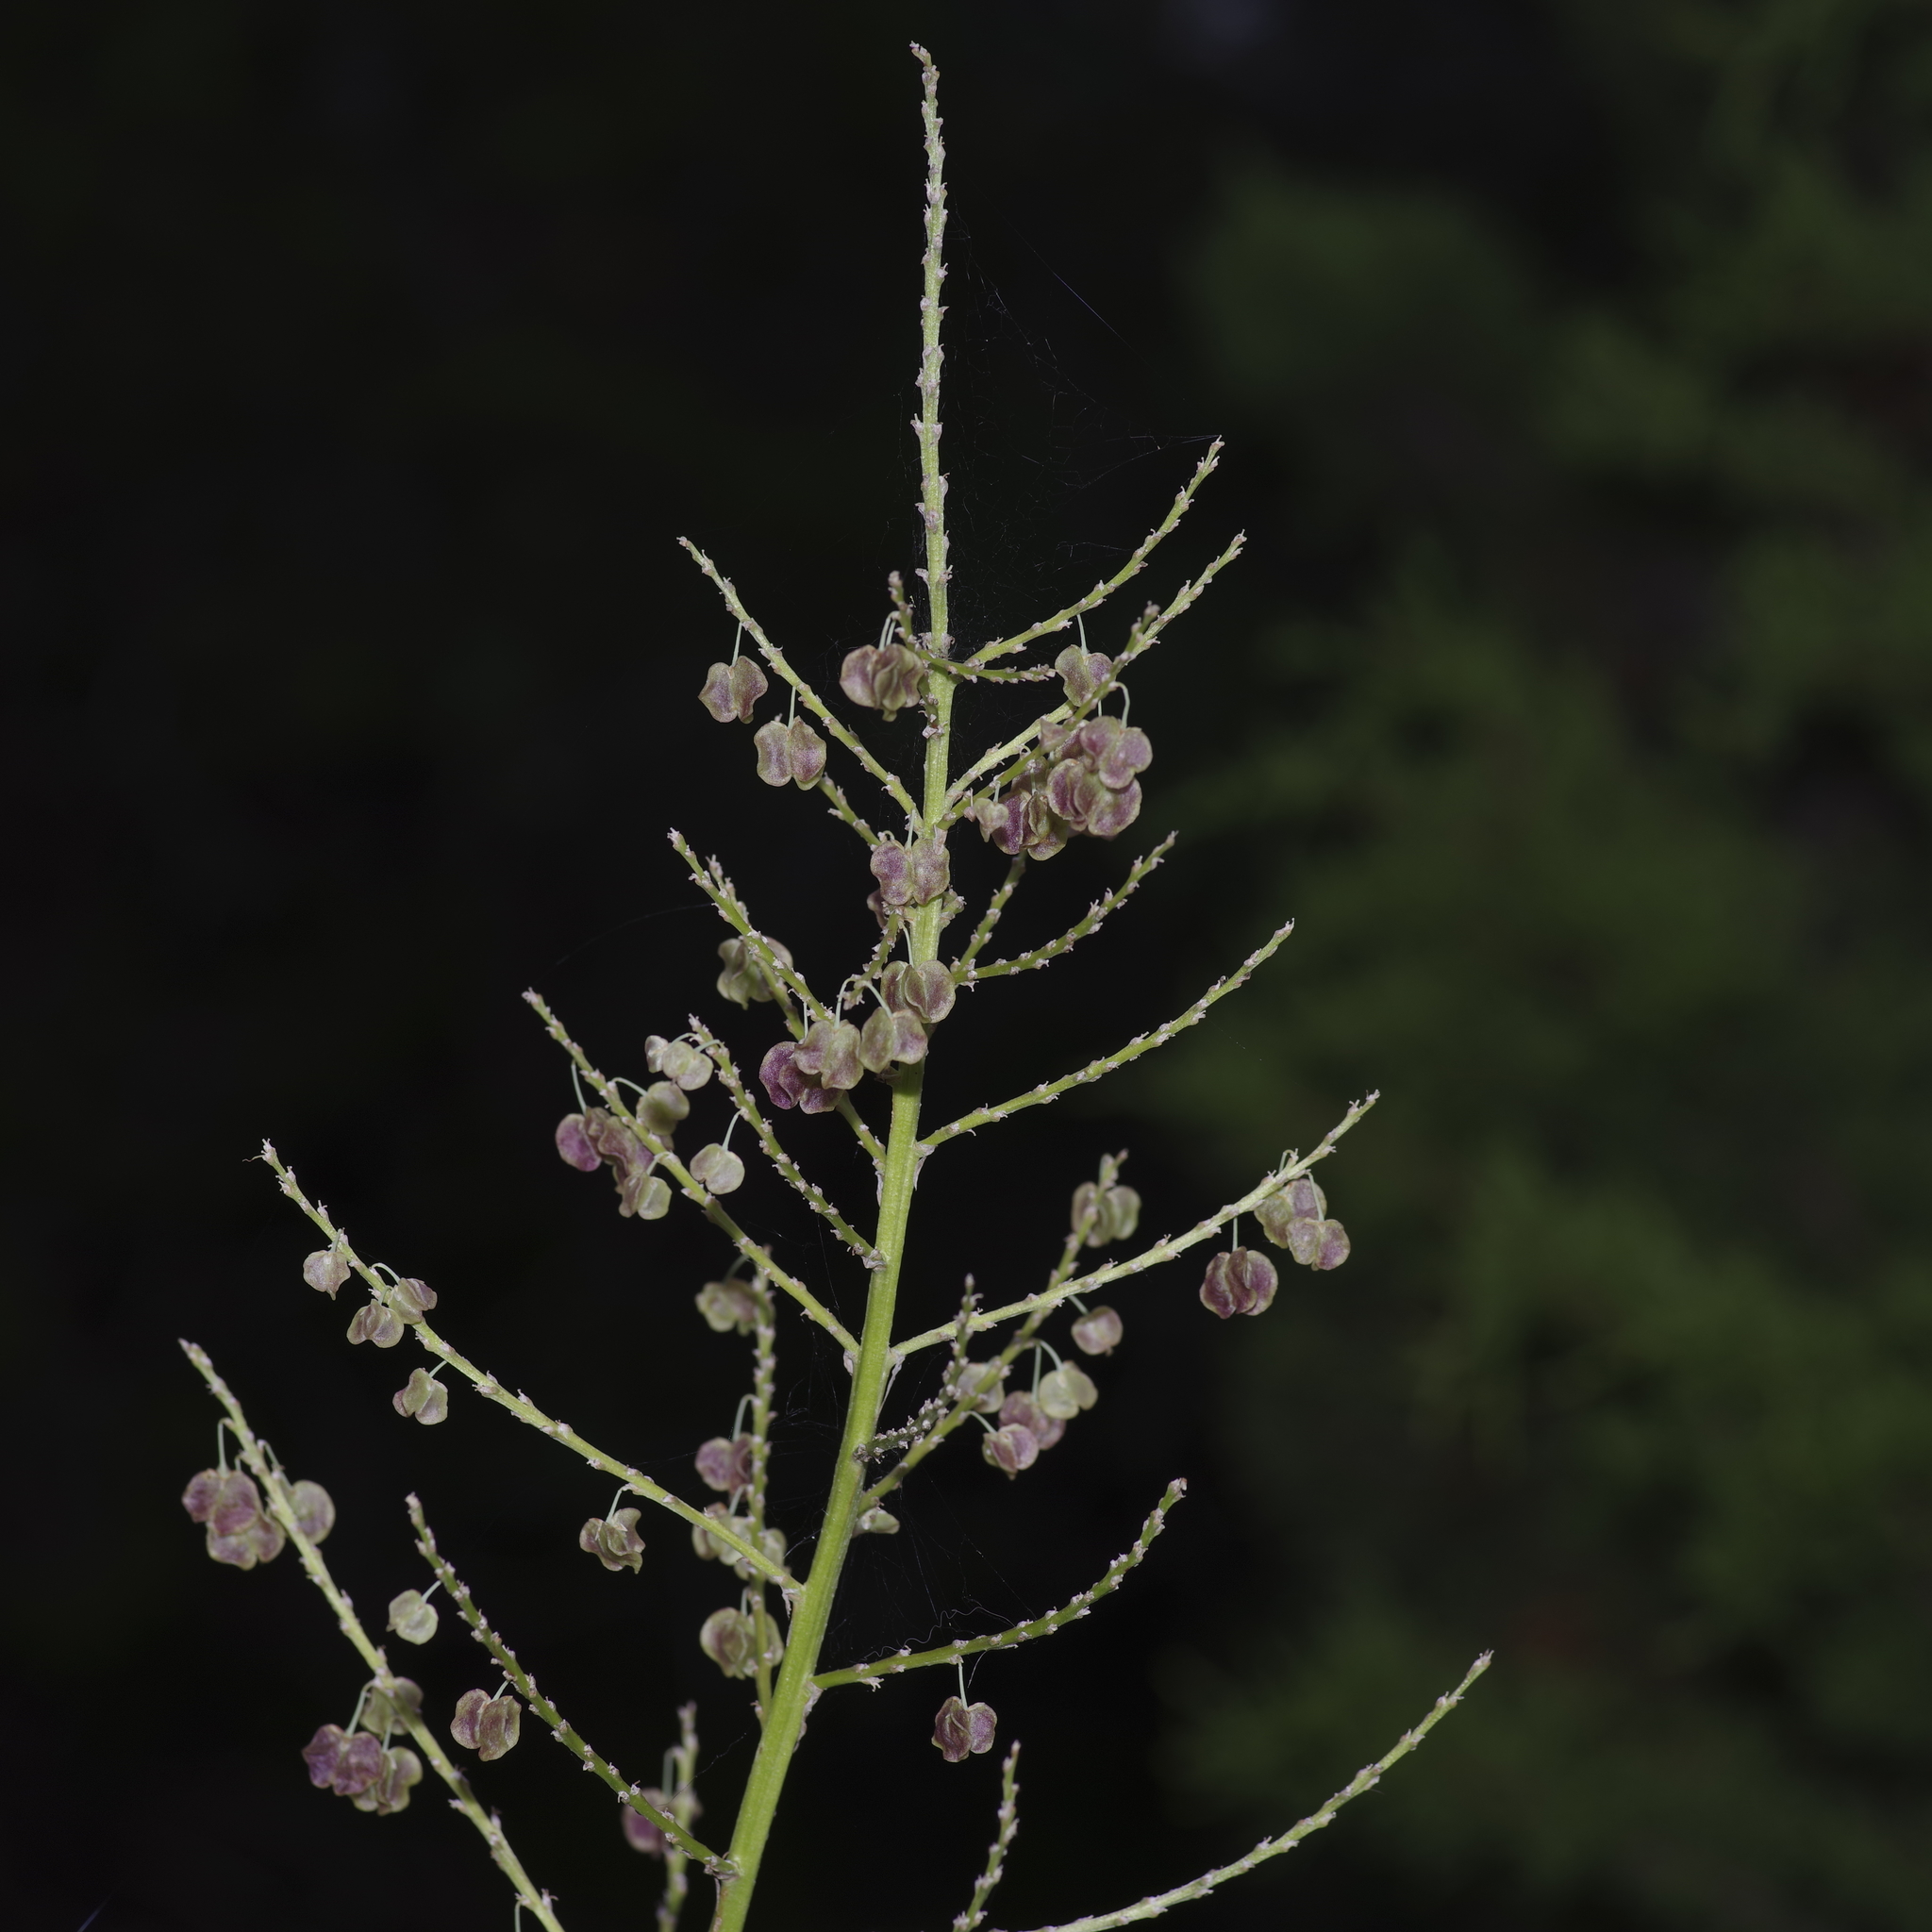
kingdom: Plantae
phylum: Tracheophyta
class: Liliopsida
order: Asparagales
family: Asparagaceae
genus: Nolina
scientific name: Nolina lindheimeriana
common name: Lindheimer's bear-grass
